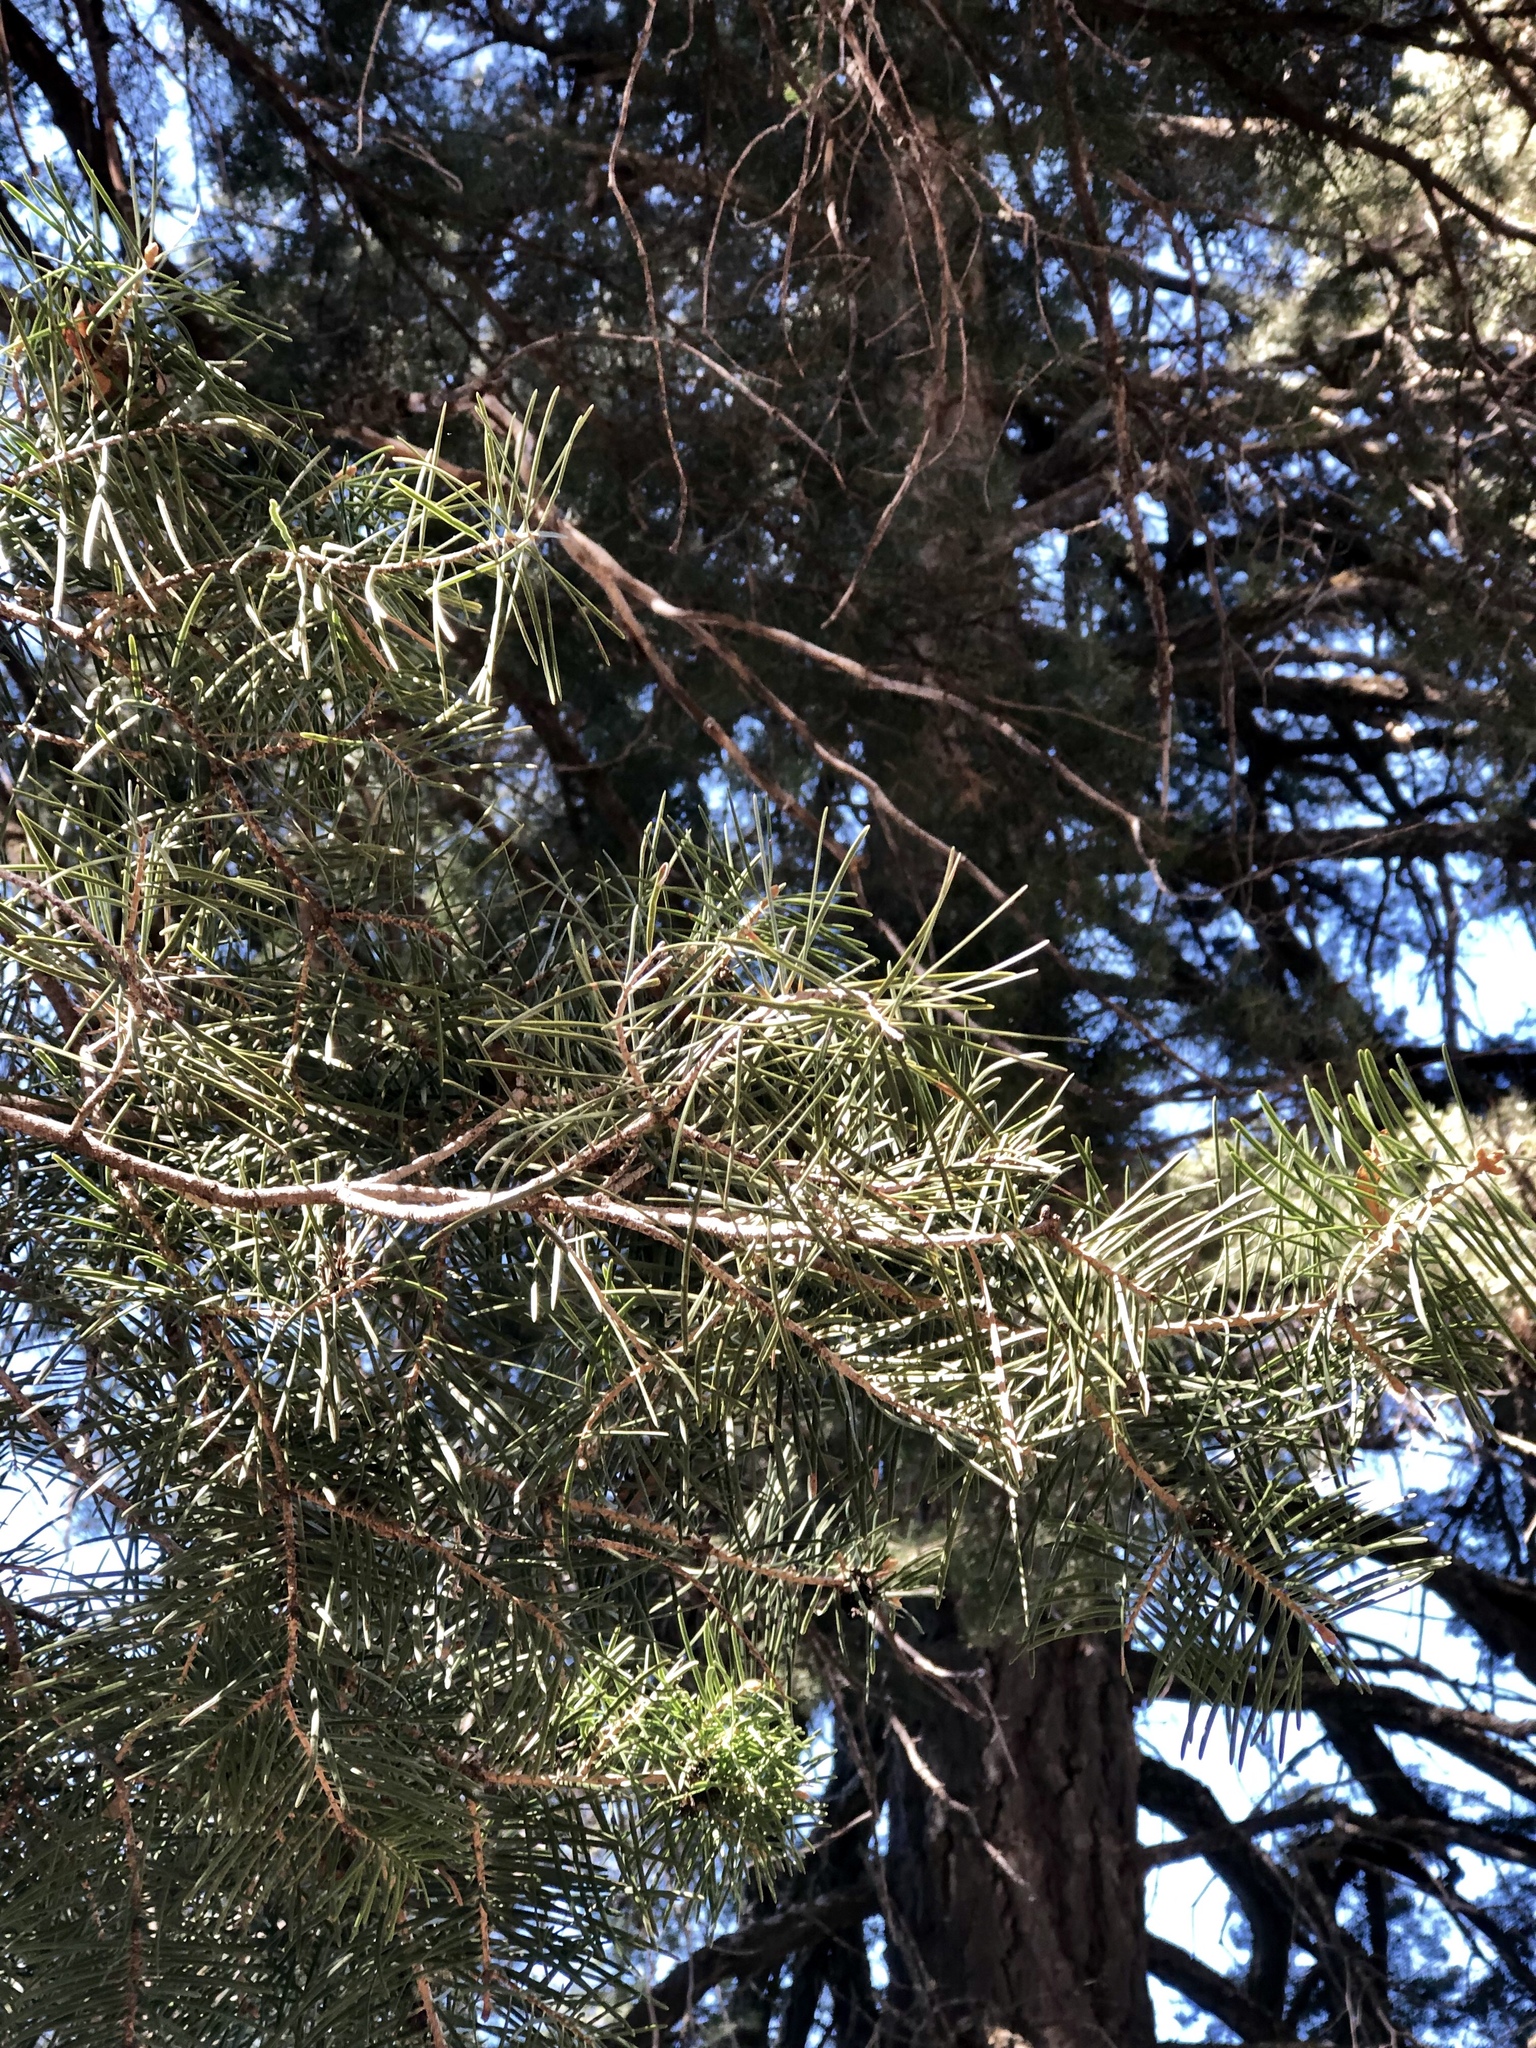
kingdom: Plantae
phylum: Tracheophyta
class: Pinopsida
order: Pinales
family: Pinaceae
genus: Abies
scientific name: Abies concolor
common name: Colorado fir
